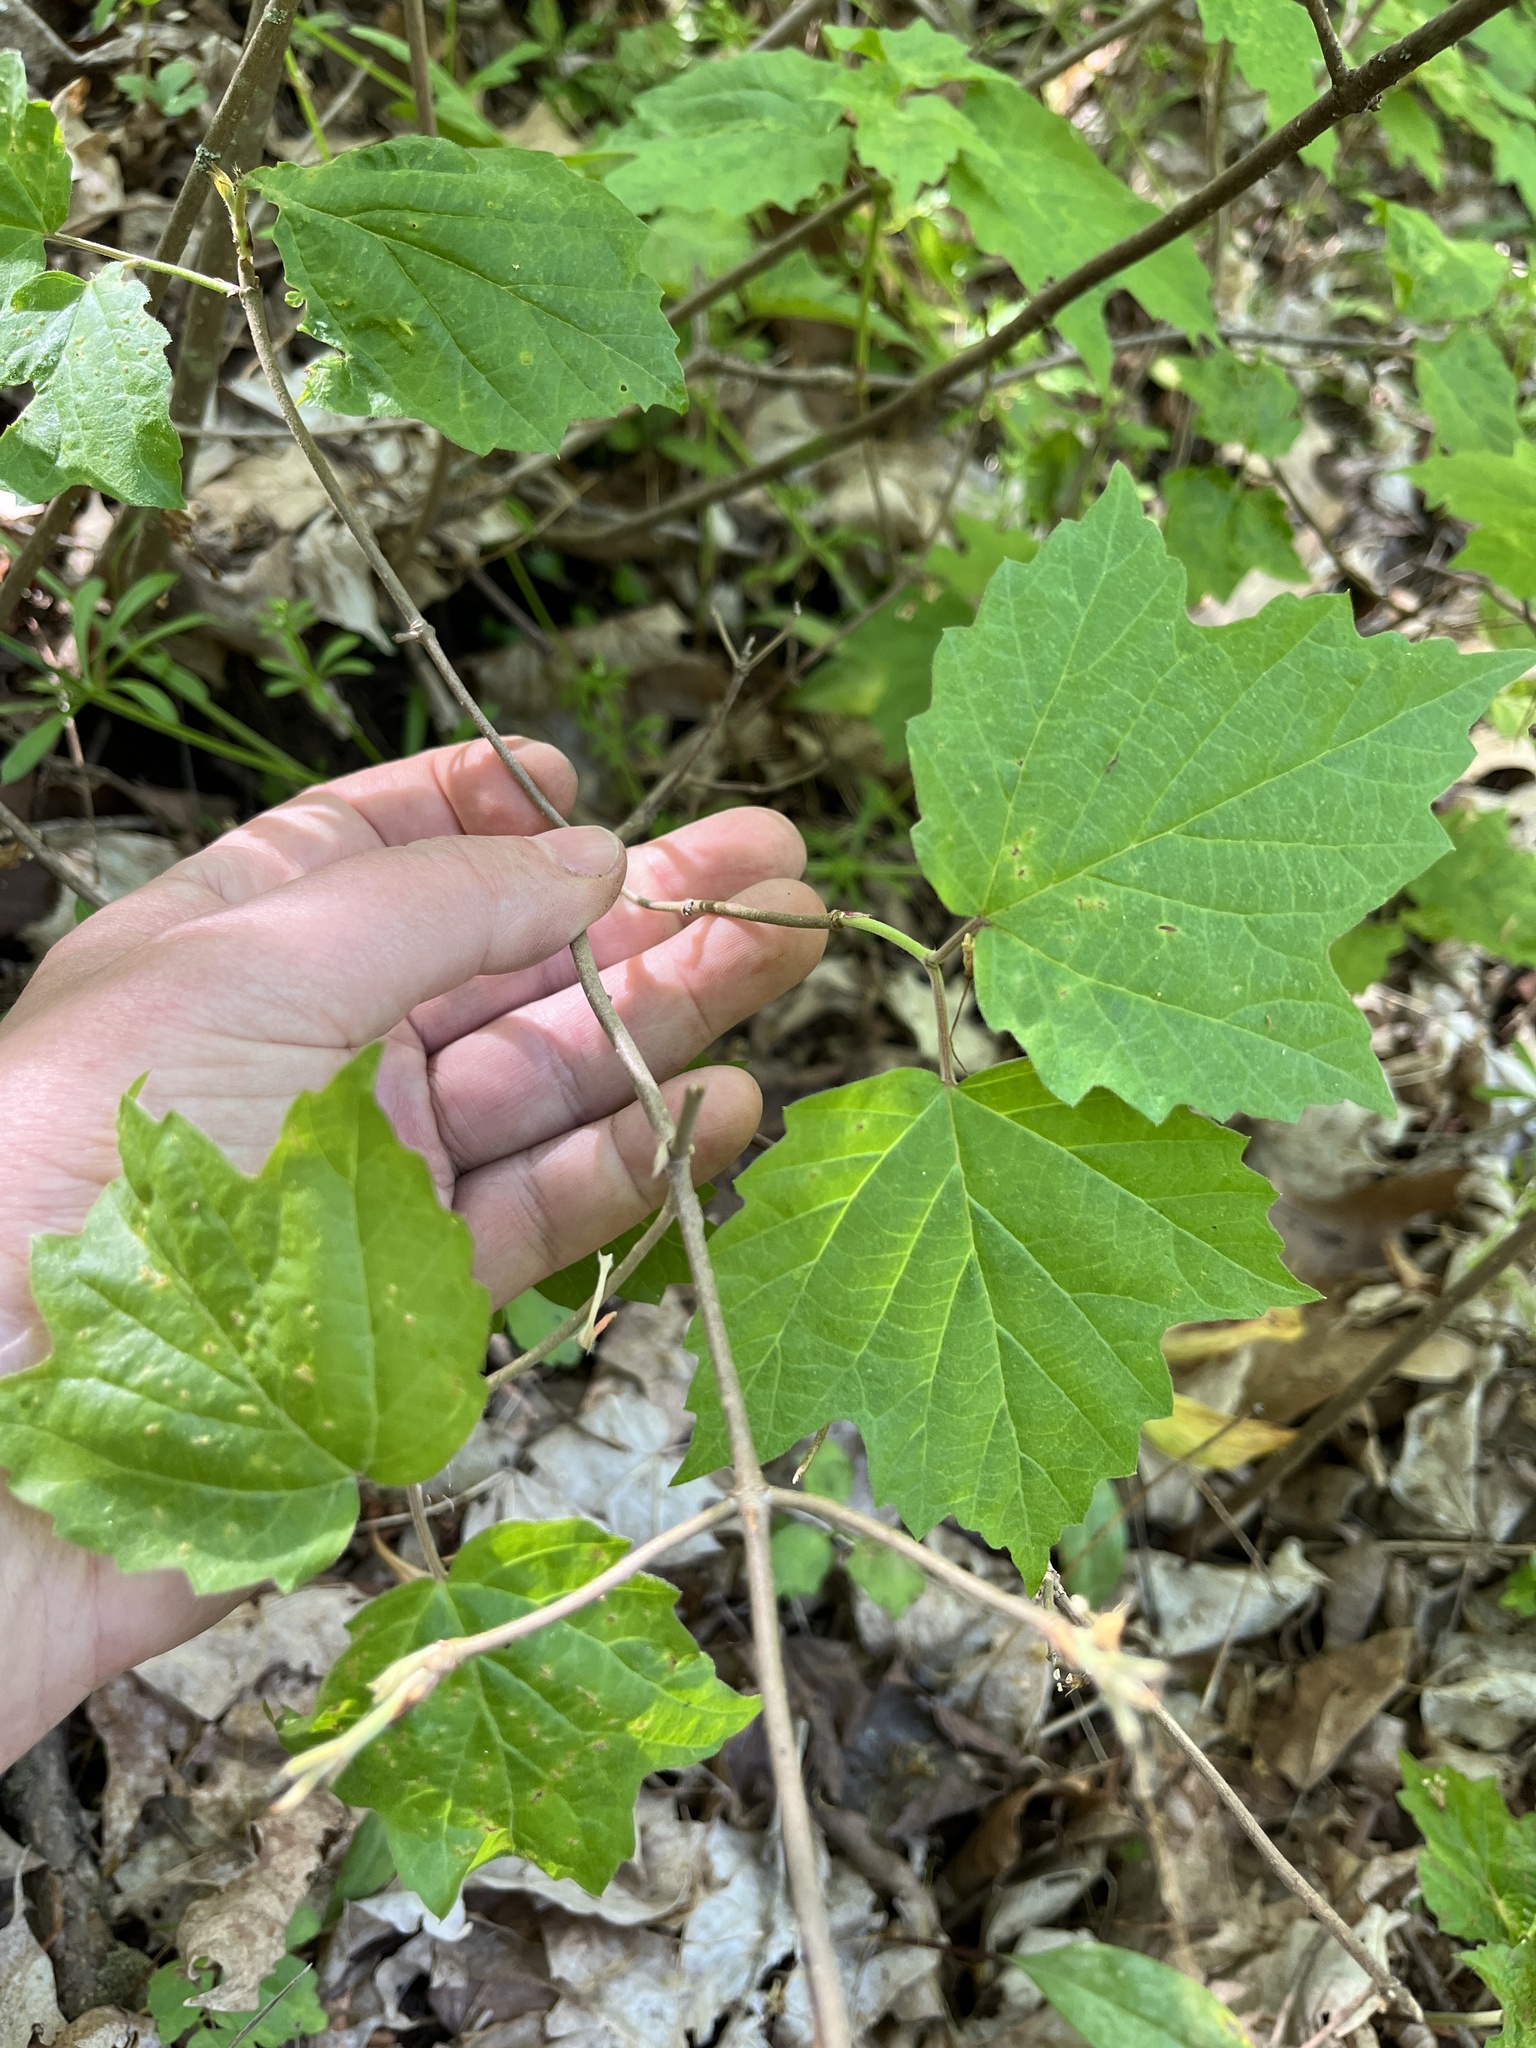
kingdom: Plantae
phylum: Tracheophyta
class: Magnoliopsida
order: Dipsacales
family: Viburnaceae
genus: Viburnum
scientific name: Viburnum acerifolium
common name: Dockmackie
